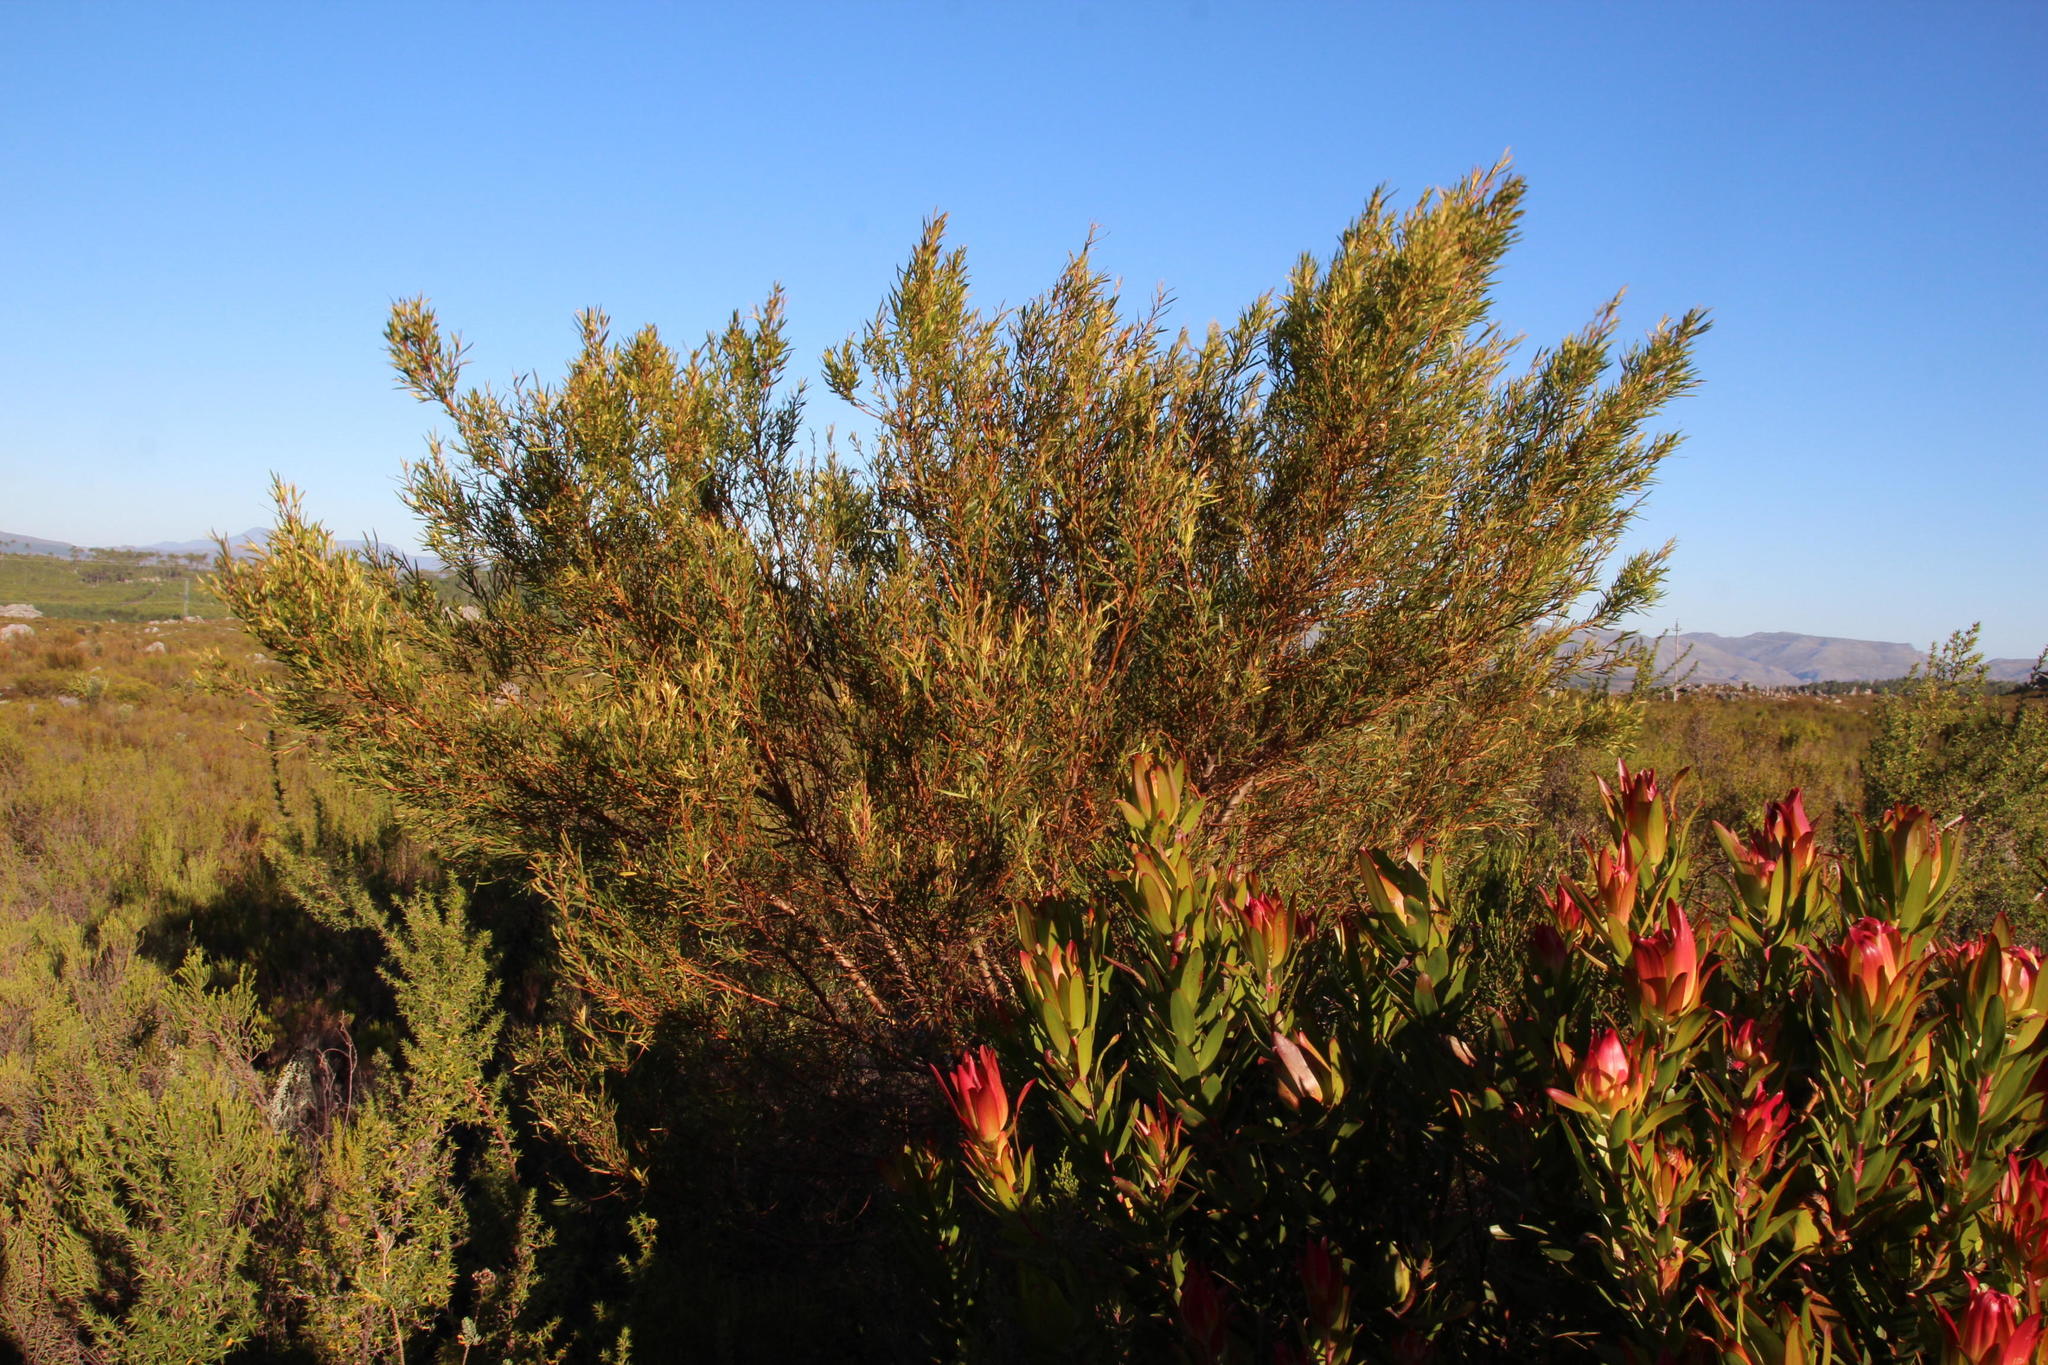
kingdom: Plantae
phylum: Tracheophyta
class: Magnoliopsida
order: Proteales
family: Proteaceae
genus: Leucadendron
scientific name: Leucadendron salicifolium
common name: Common stream conebush
